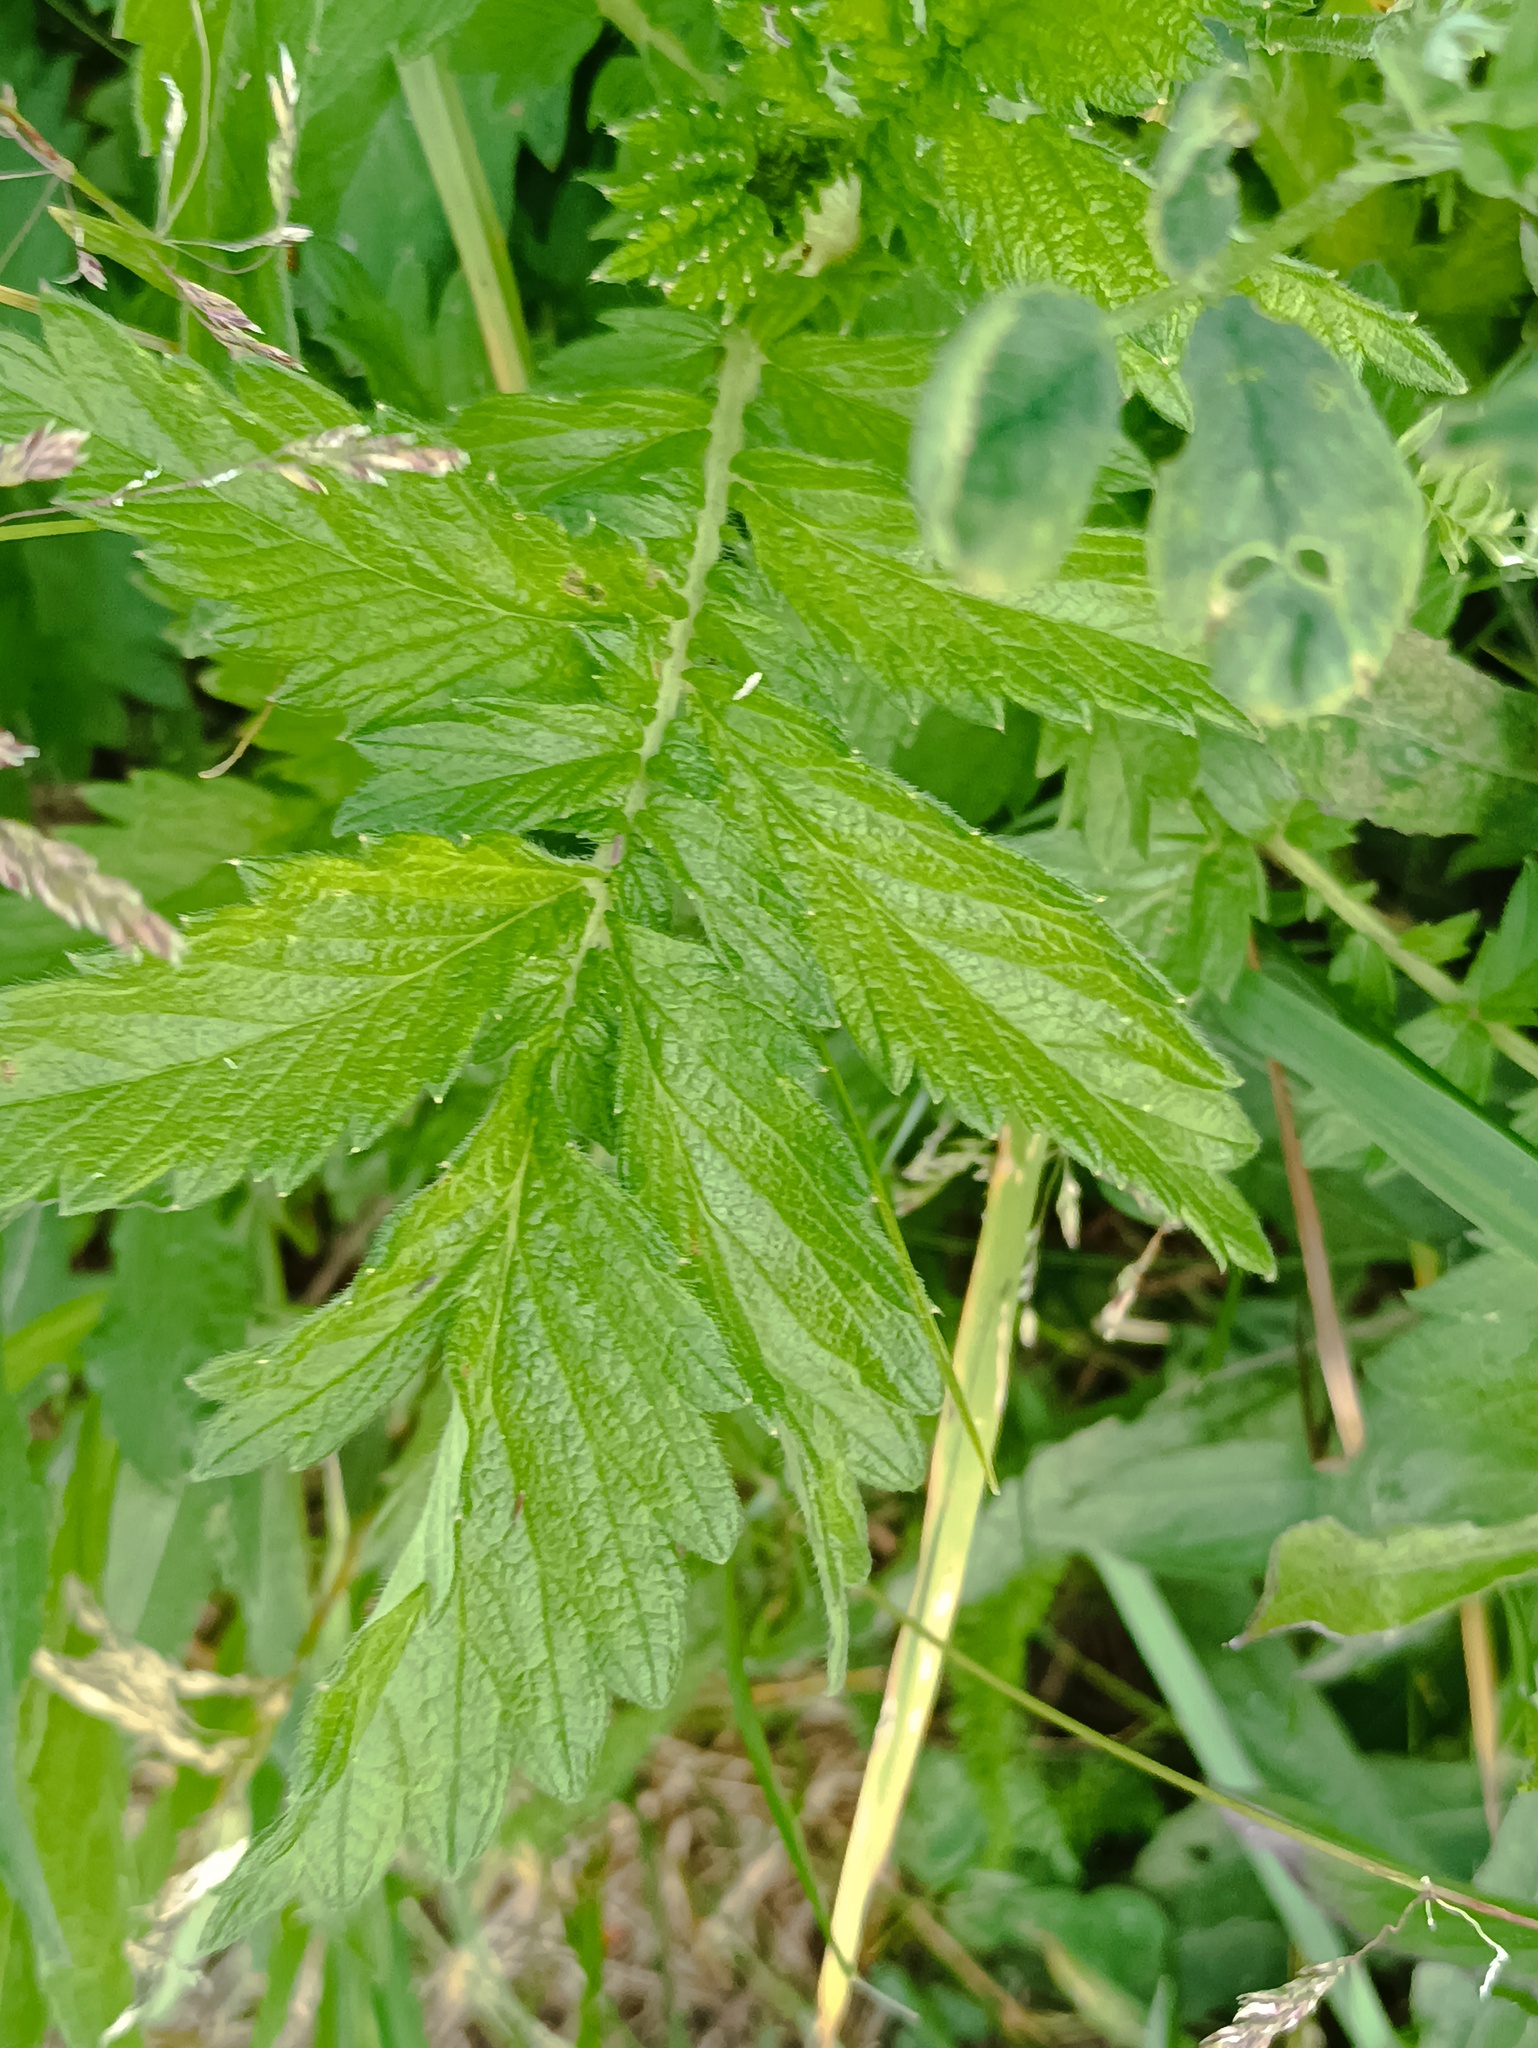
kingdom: Plantae
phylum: Tracheophyta
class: Magnoliopsida
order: Rosales
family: Rosaceae
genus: Agrimonia
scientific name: Agrimonia eupatoria
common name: Agrimony
